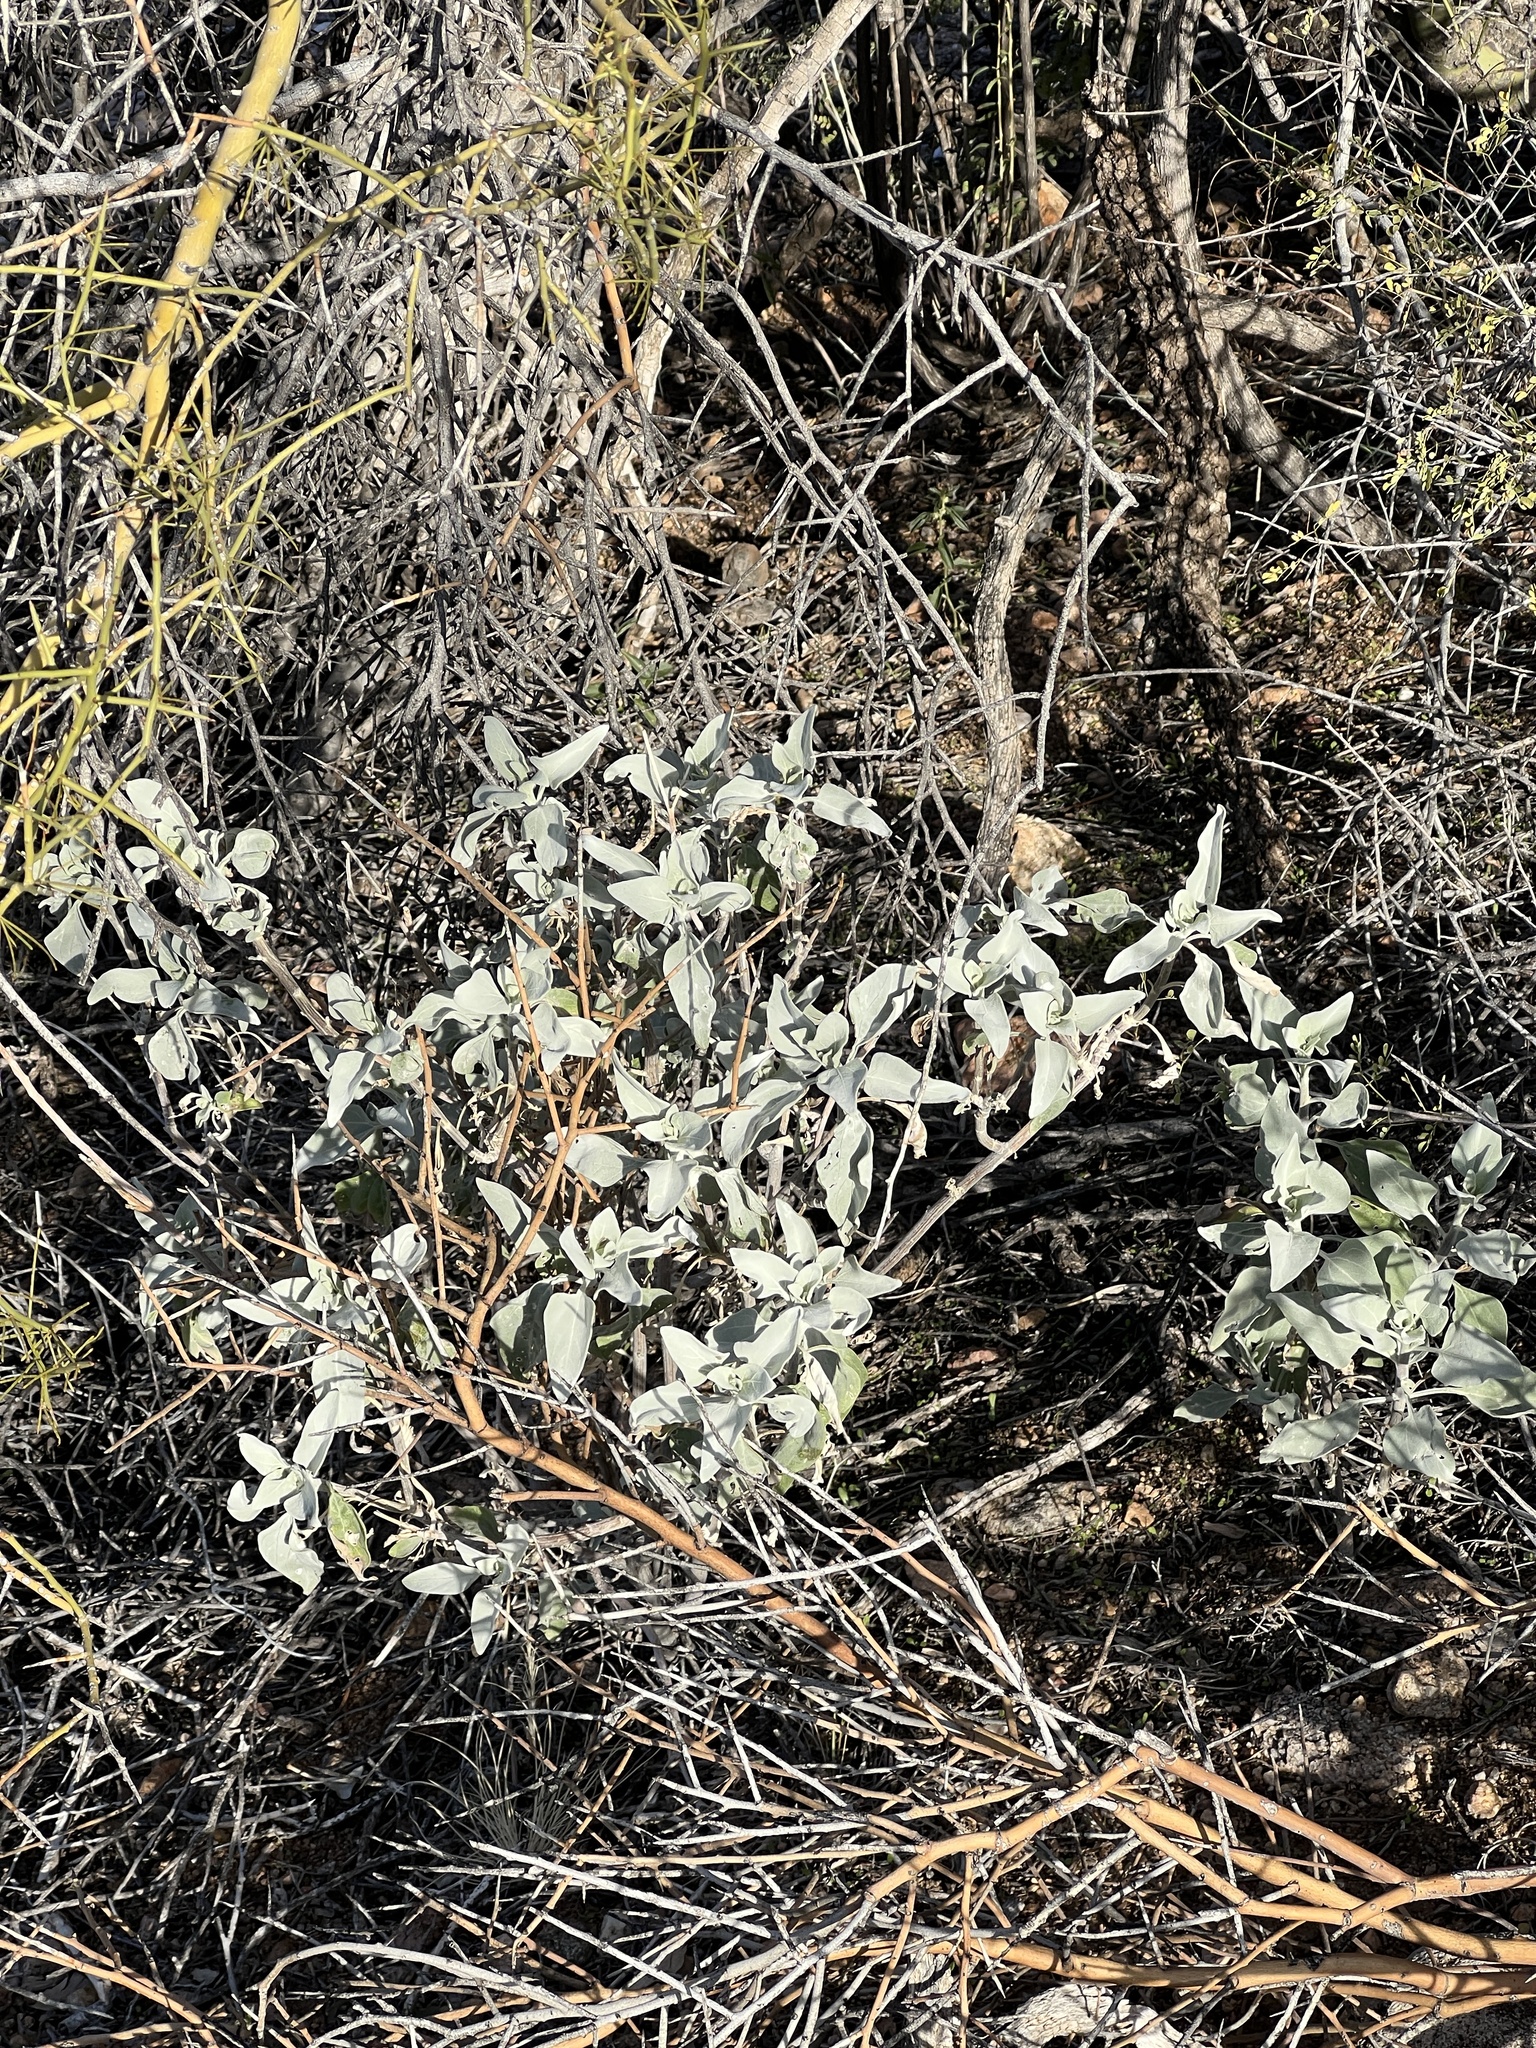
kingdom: Plantae
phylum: Tracheophyta
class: Magnoliopsida
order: Asterales
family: Asteraceae
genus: Encelia
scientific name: Encelia farinosa
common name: Brittlebush
